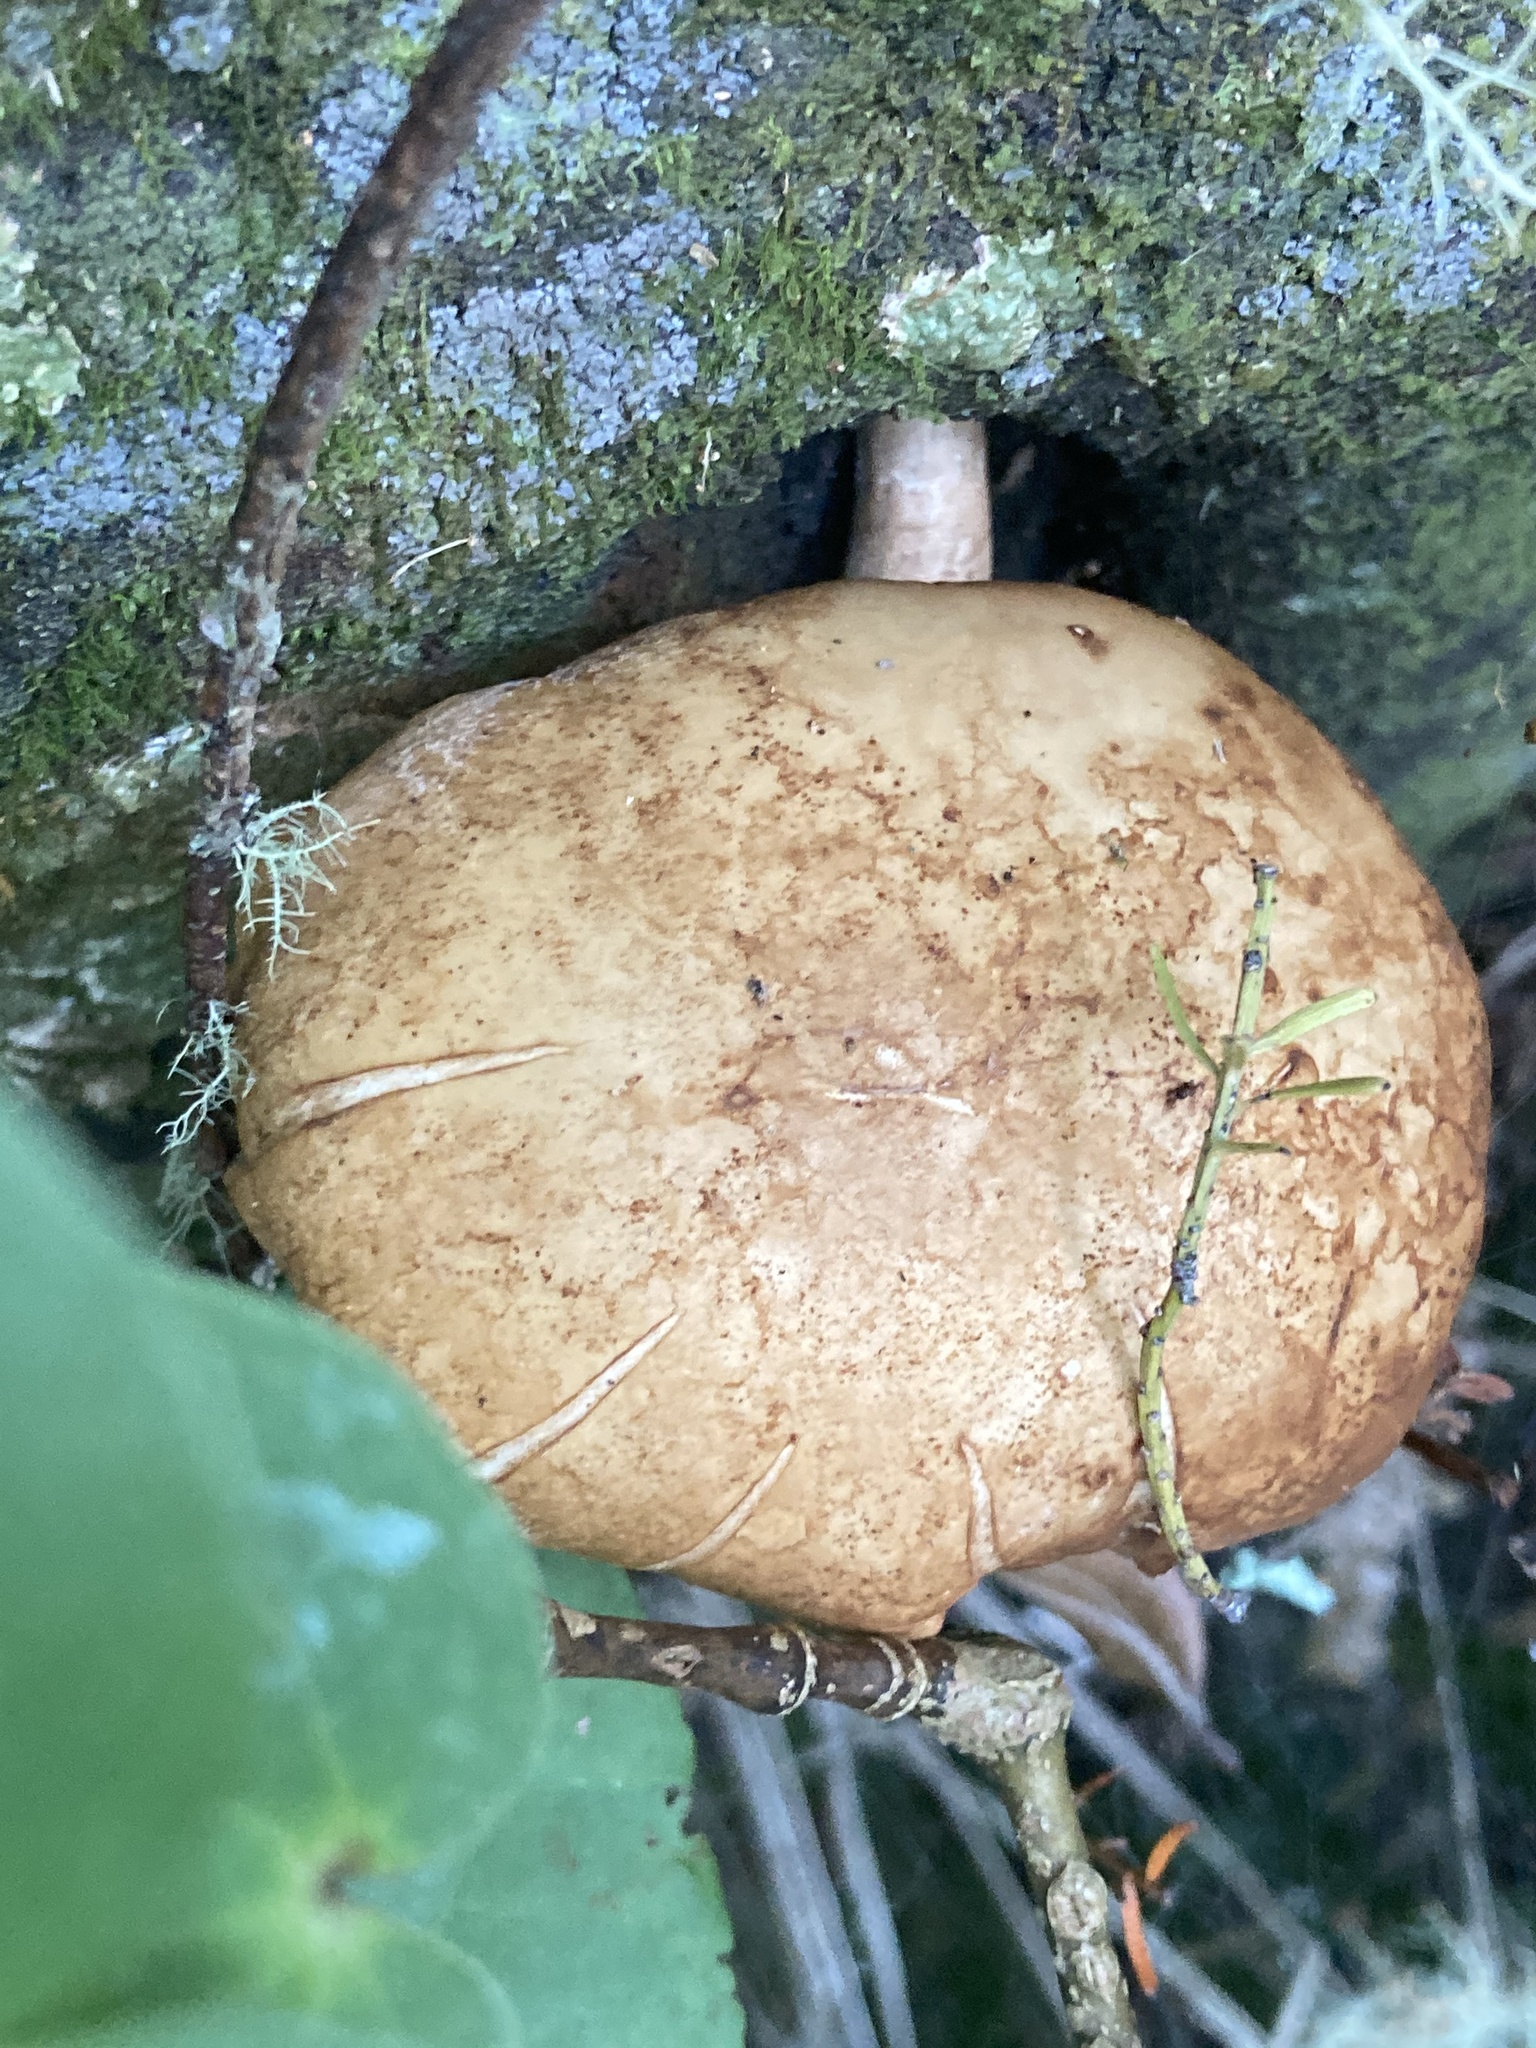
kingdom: Fungi
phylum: Basidiomycota
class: Agaricomycetes
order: Agaricales
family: Tubariaceae
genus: Cyclocybe
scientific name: Cyclocybe parasitica
